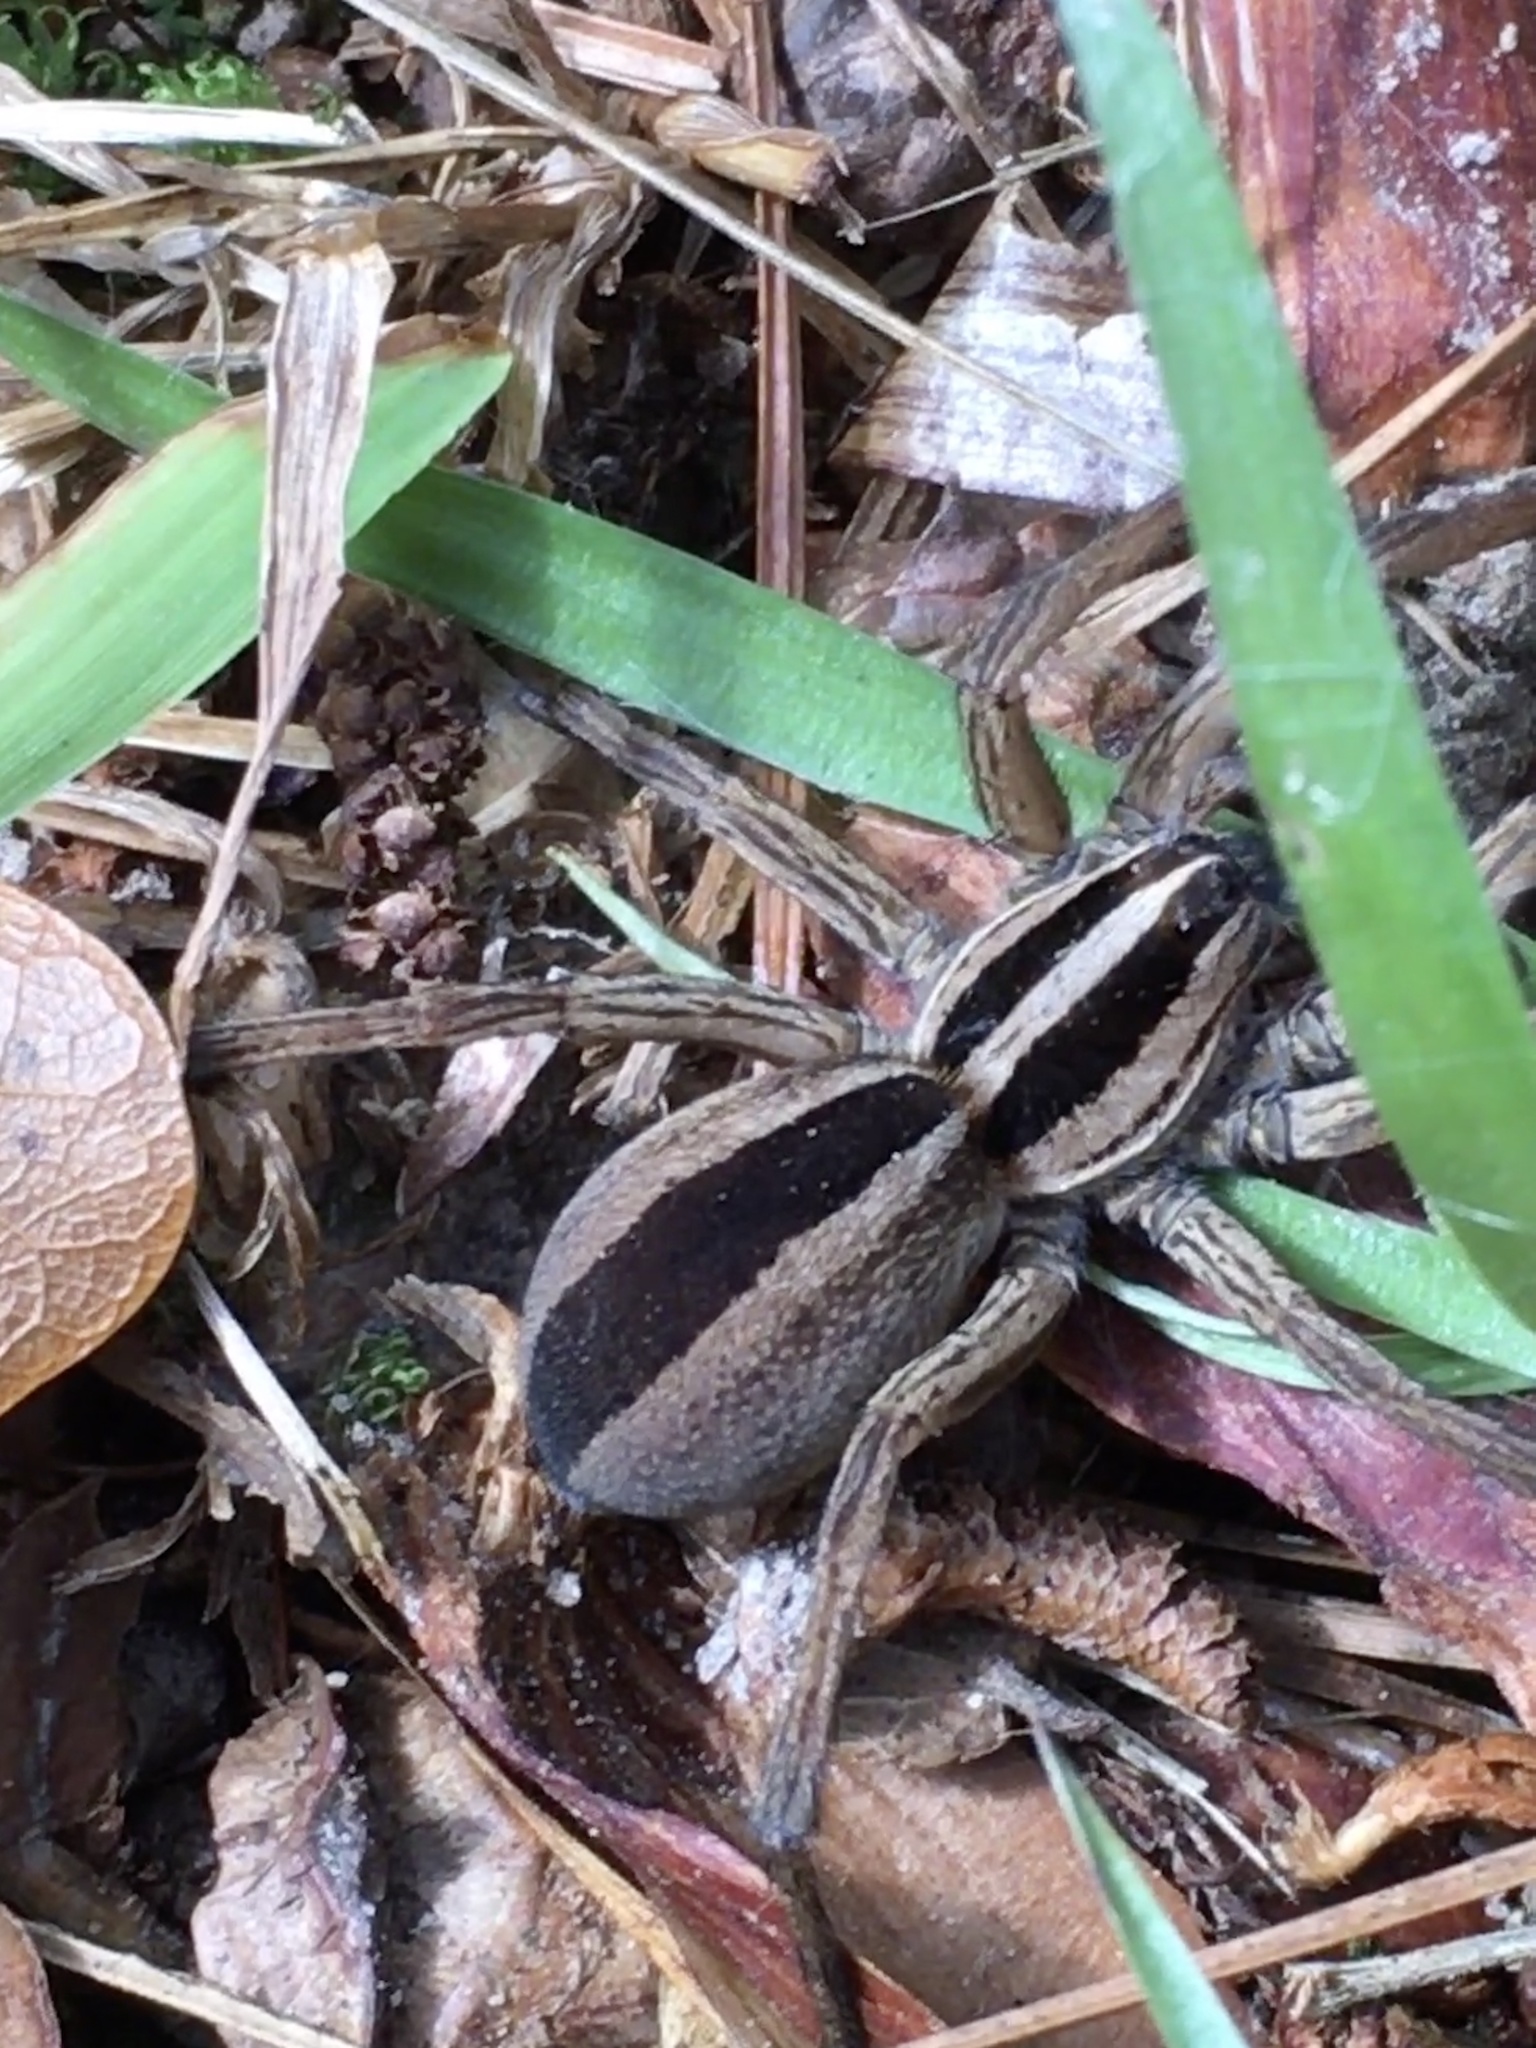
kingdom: Animalia
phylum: Arthropoda
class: Arachnida
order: Araneae
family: Lycosidae
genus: Rabidosa
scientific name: Rabidosa punctulata
